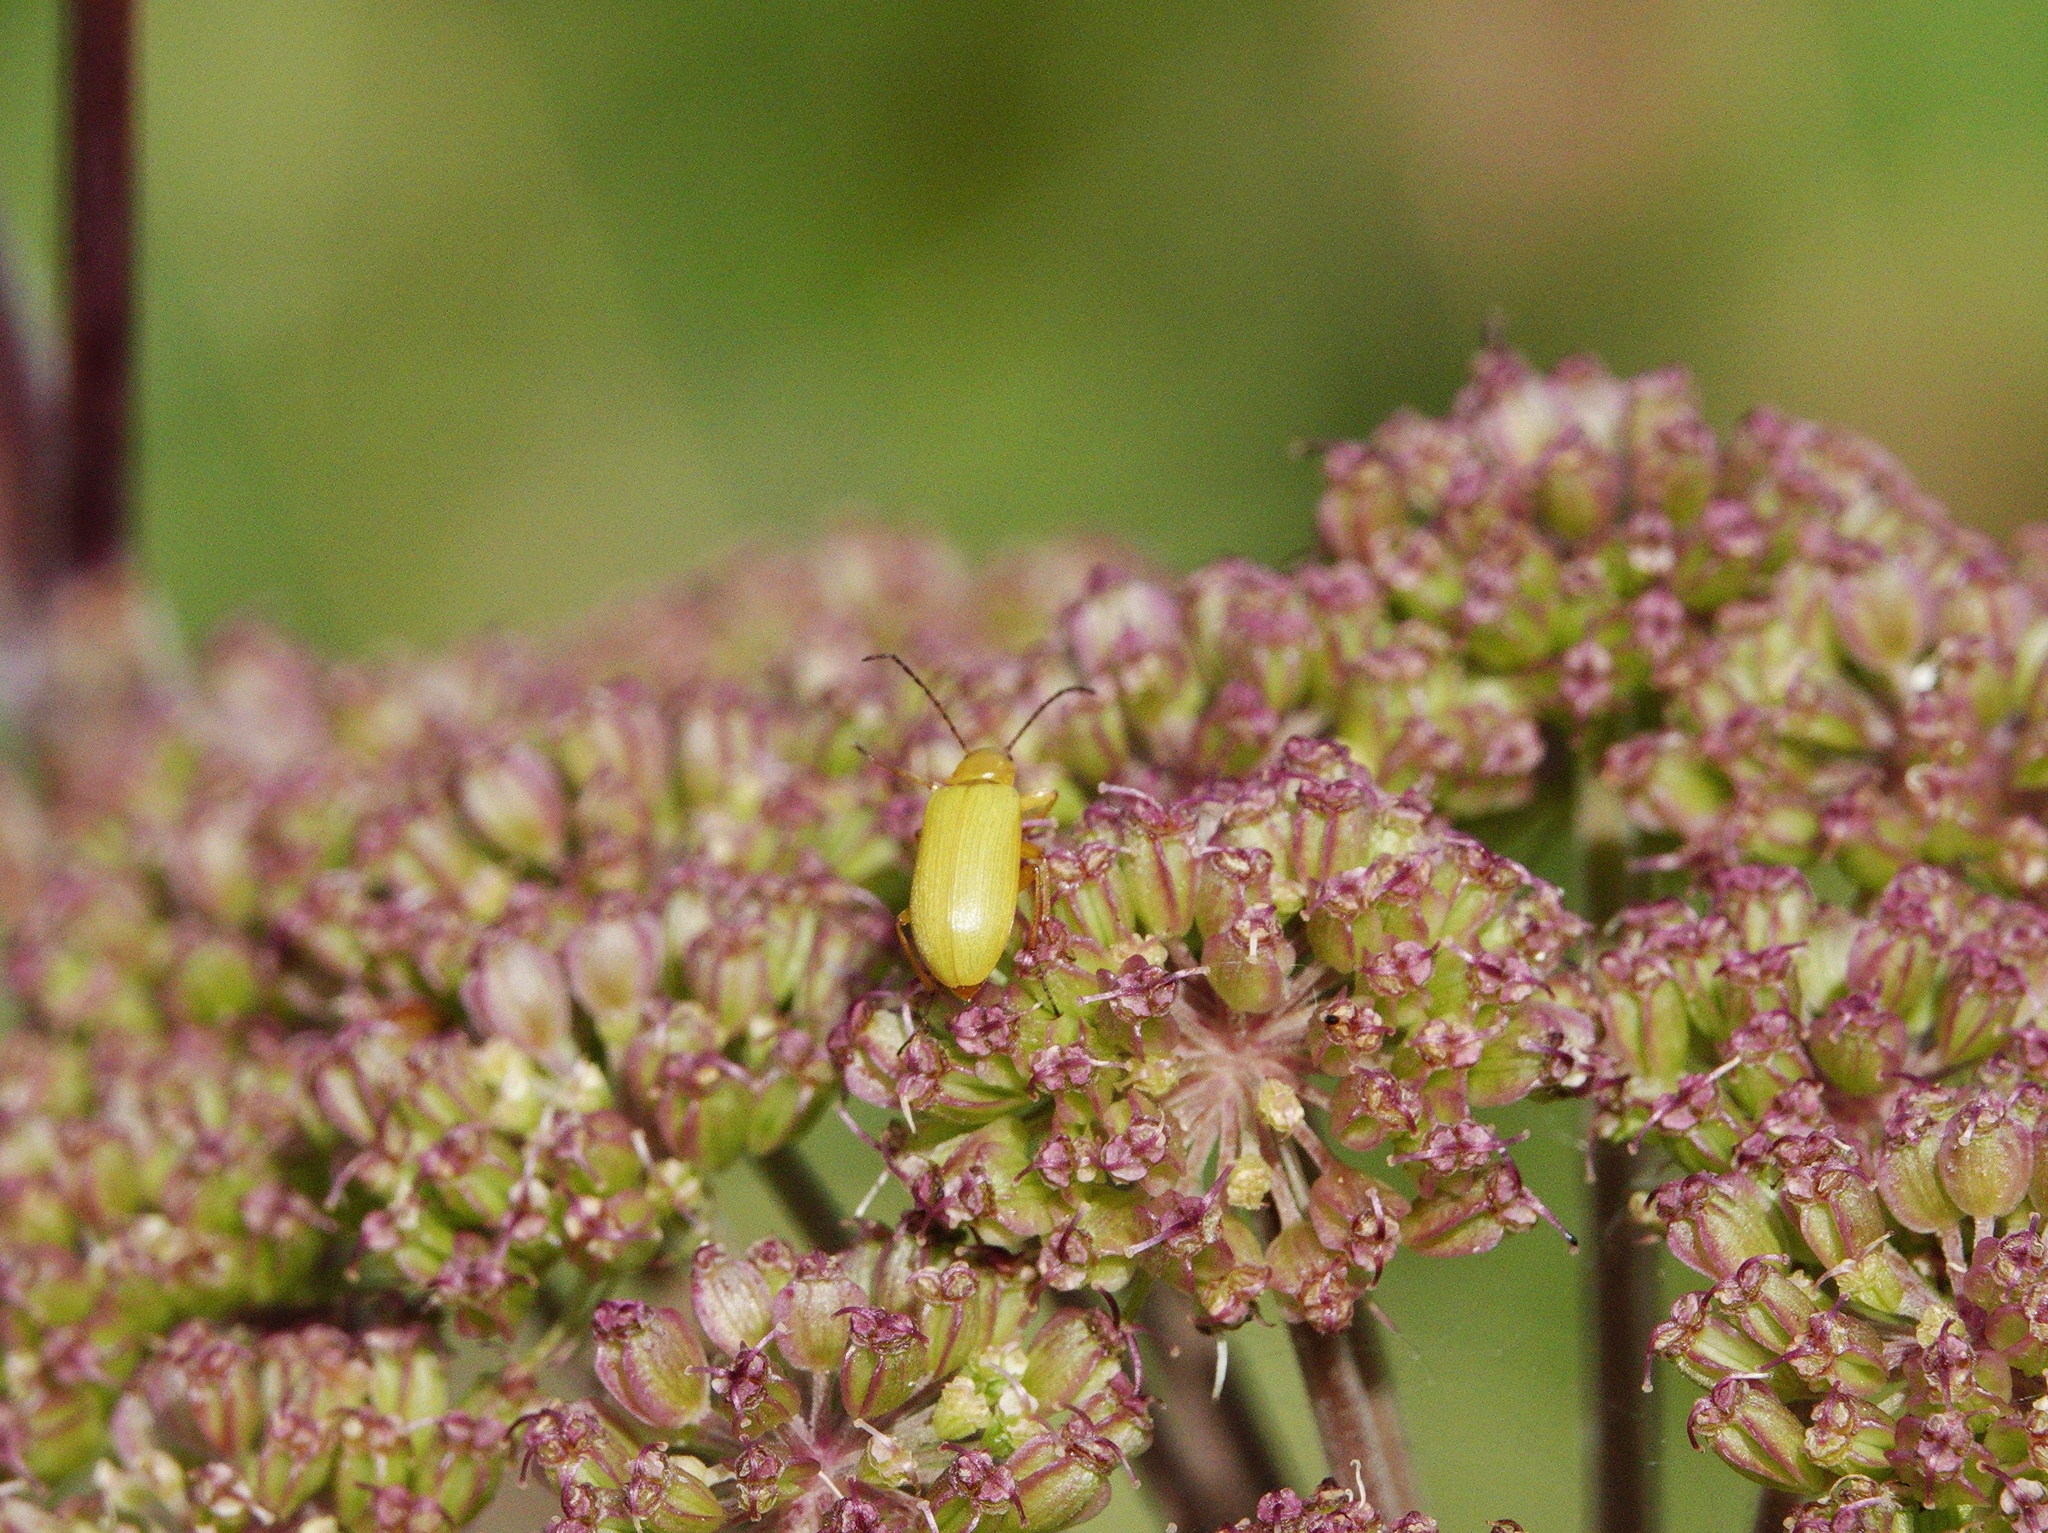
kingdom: Animalia
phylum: Arthropoda
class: Insecta
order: Coleoptera
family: Tenebrionidae
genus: Cteniopus
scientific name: Cteniopus sulphureus
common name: Sulphur beetle
